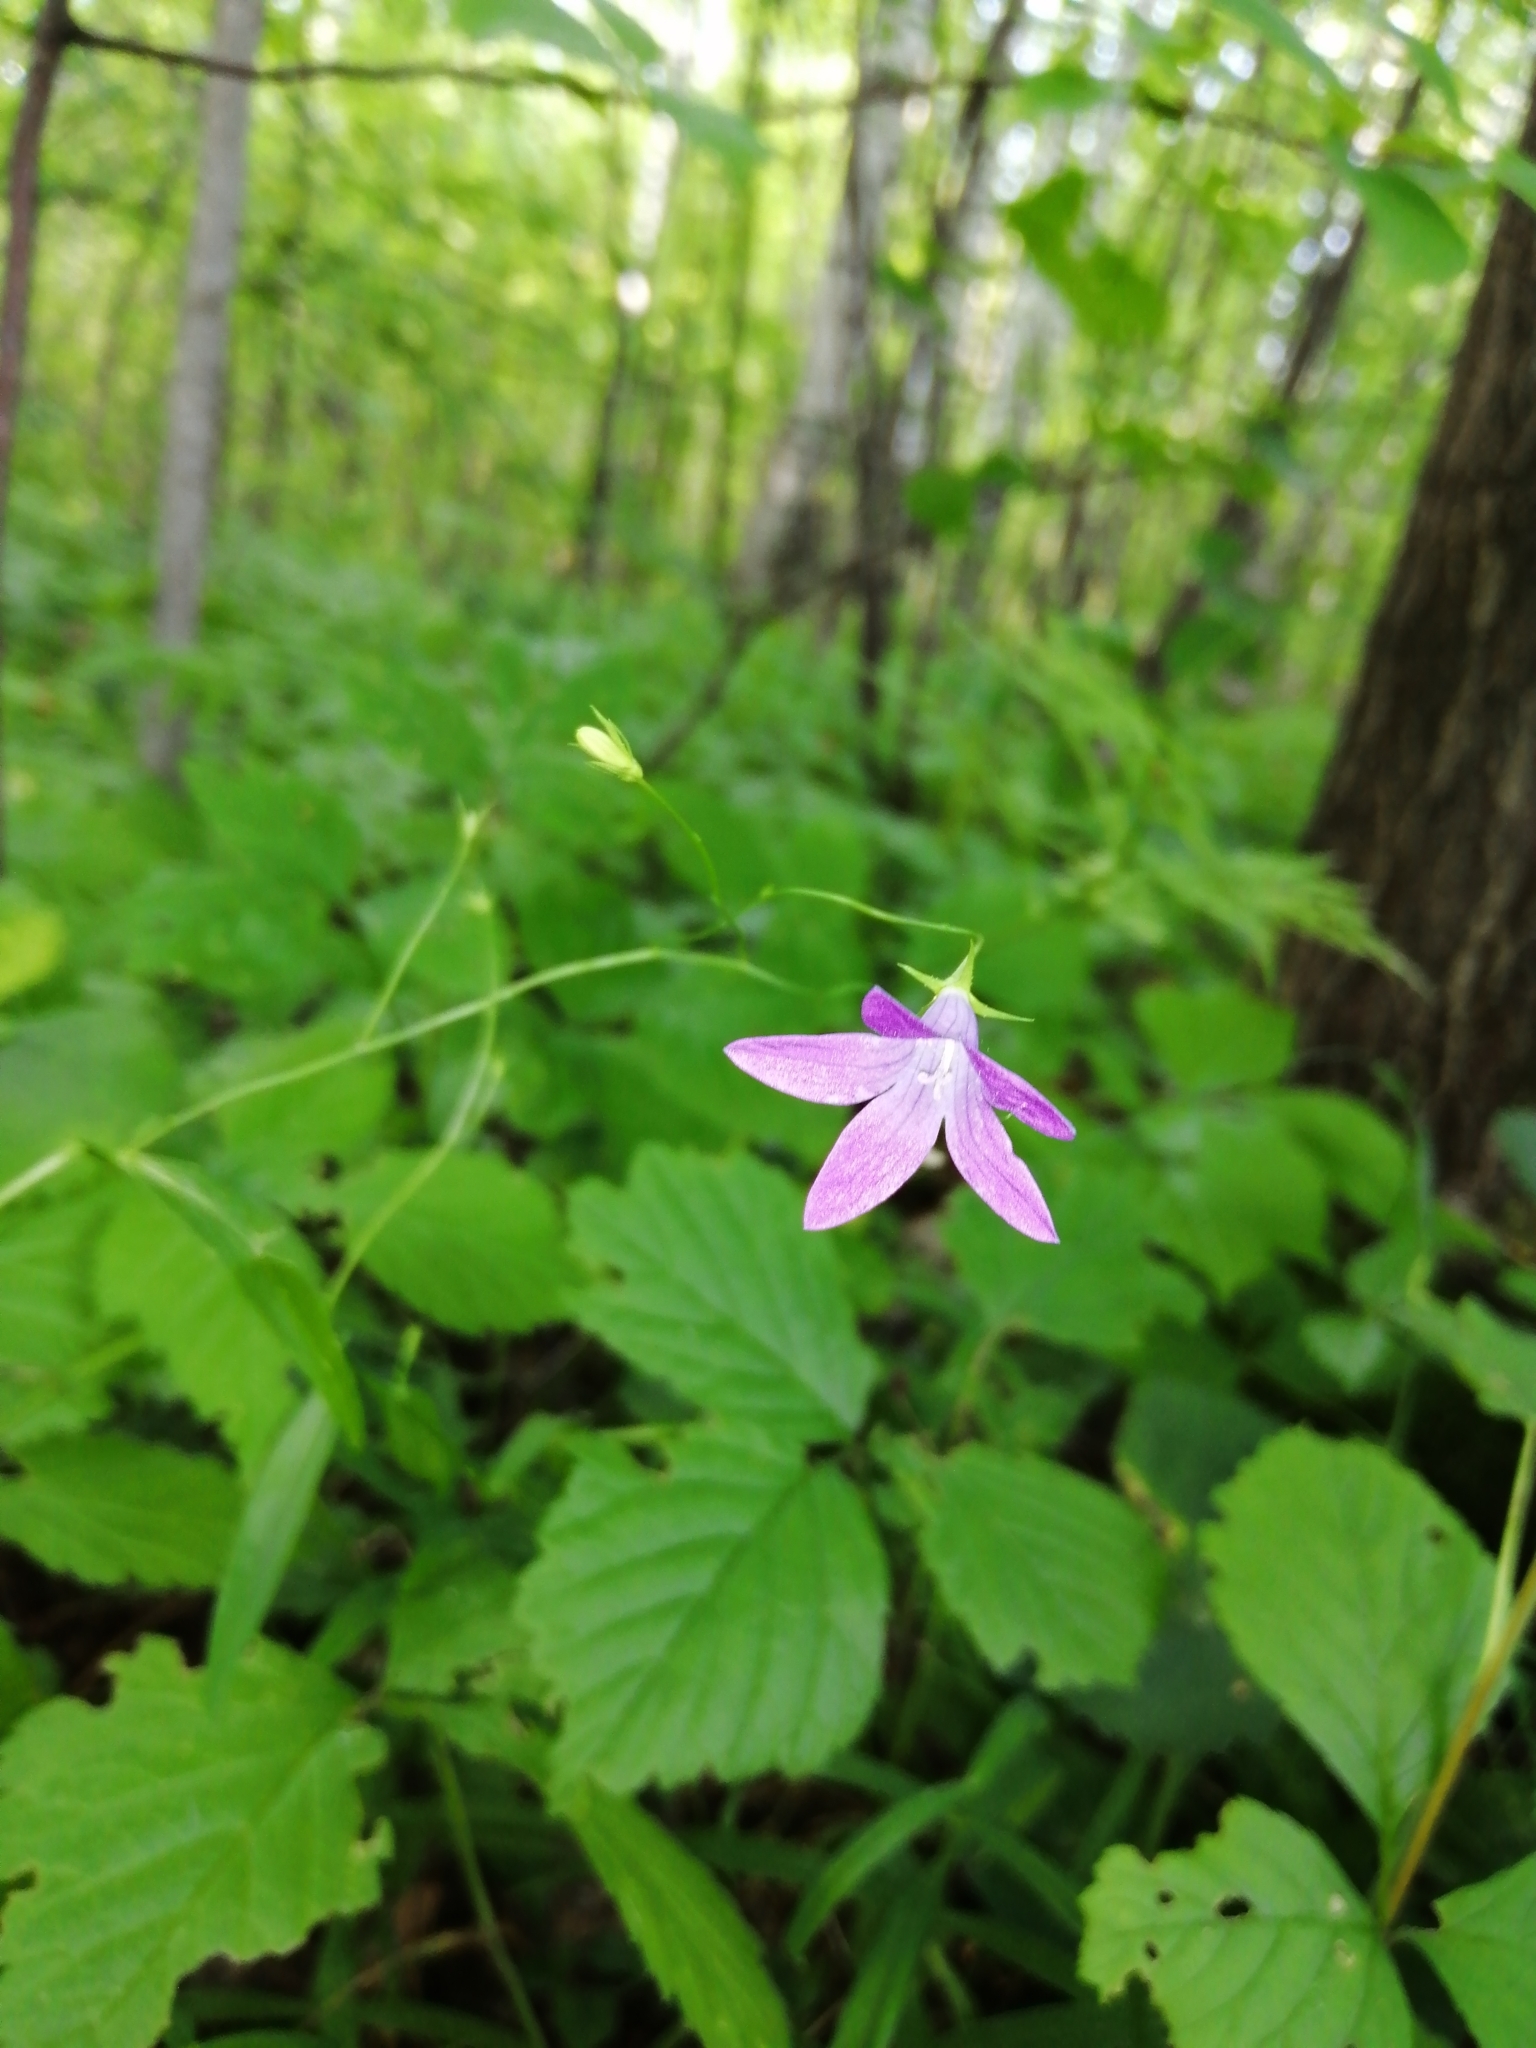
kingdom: Plantae
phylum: Tracheophyta
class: Magnoliopsida
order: Asterales
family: Campanulaceae
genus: Campanula
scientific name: Campanula patula
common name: Spreading bellflower
